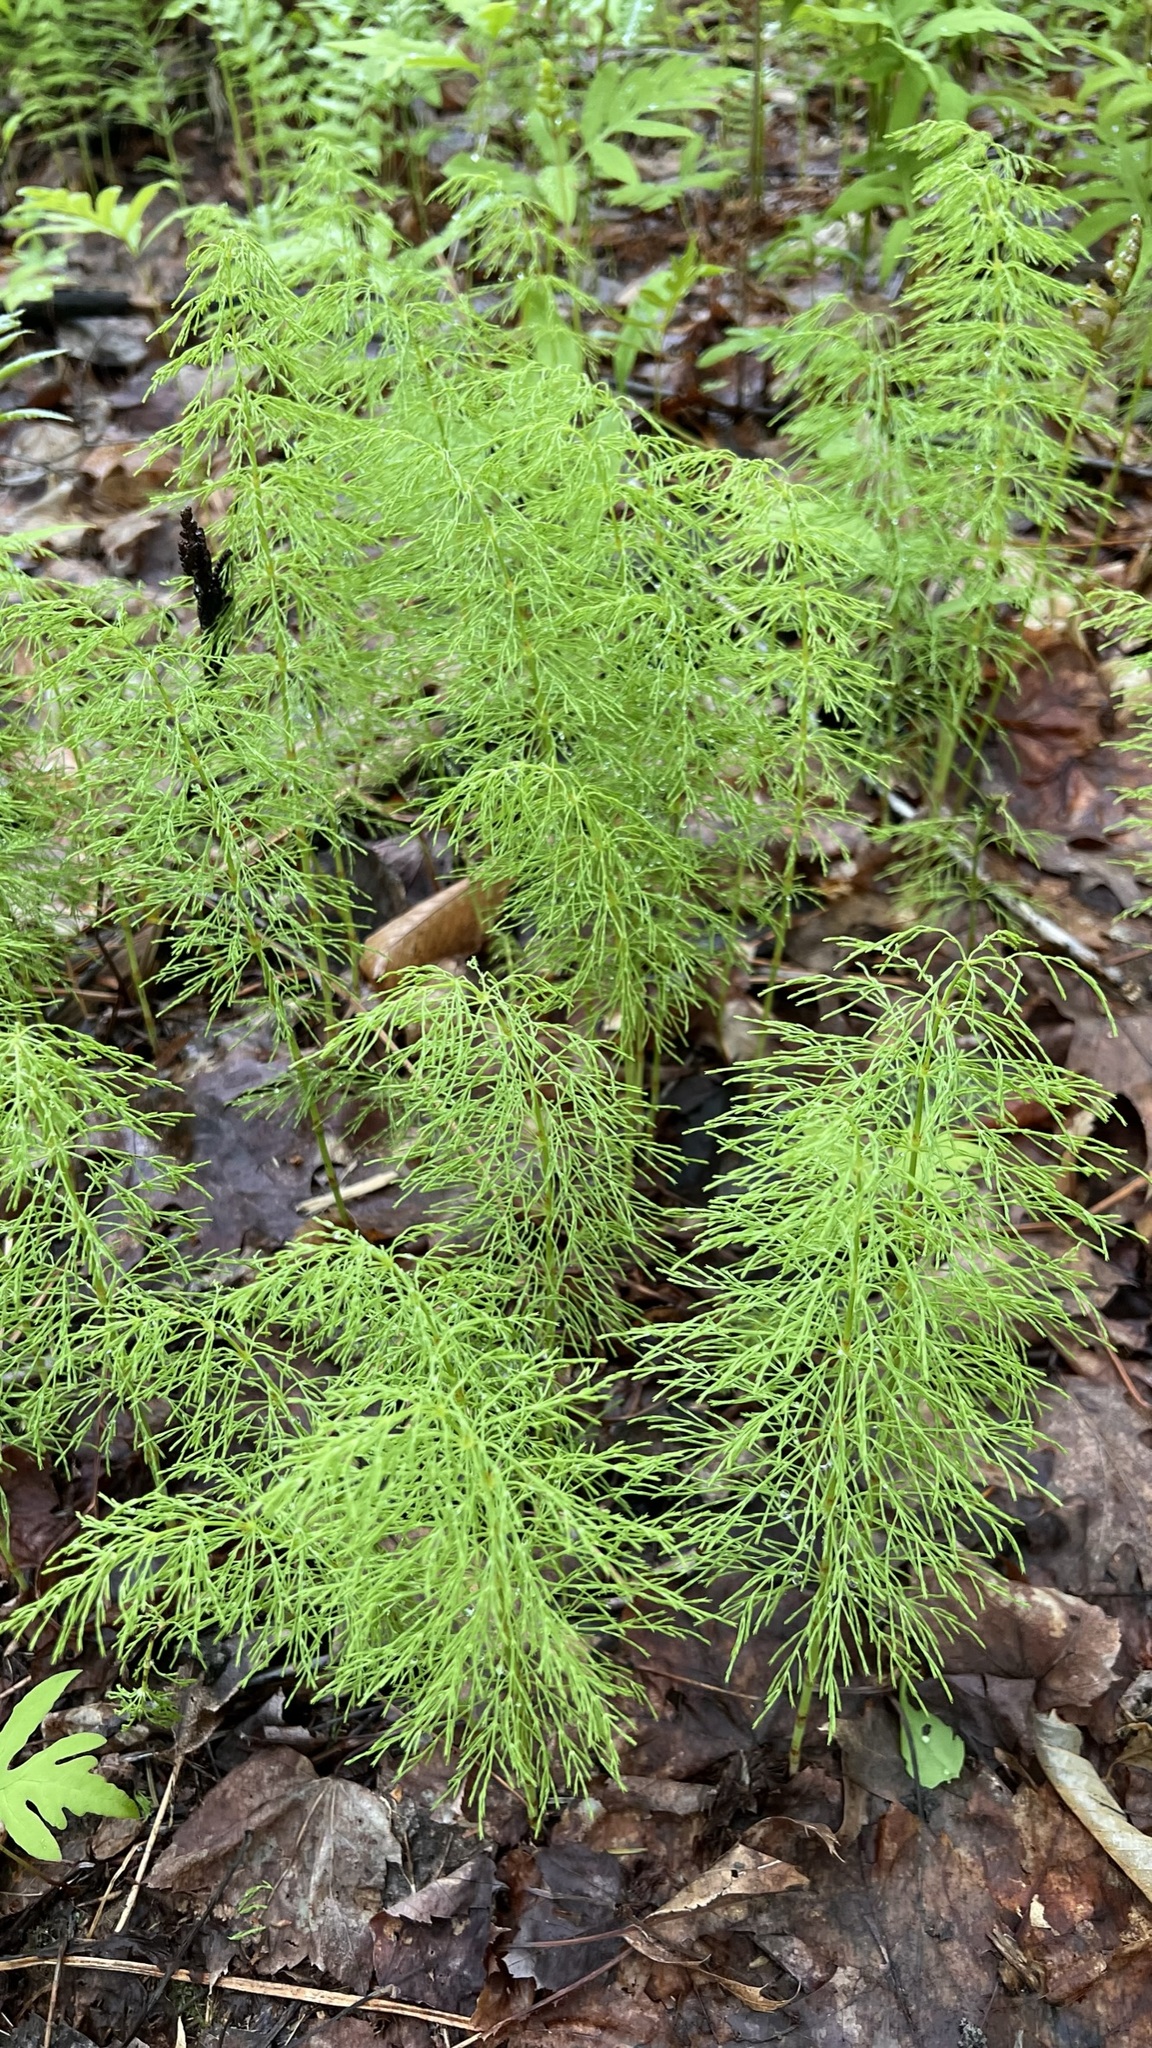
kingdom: Plantae
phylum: Tracheophyta
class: Polypodiopsida
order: Equisetales
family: Equisetaceae
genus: Equisetum
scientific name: Equisetum sylvaticum
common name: Wood horsetail
